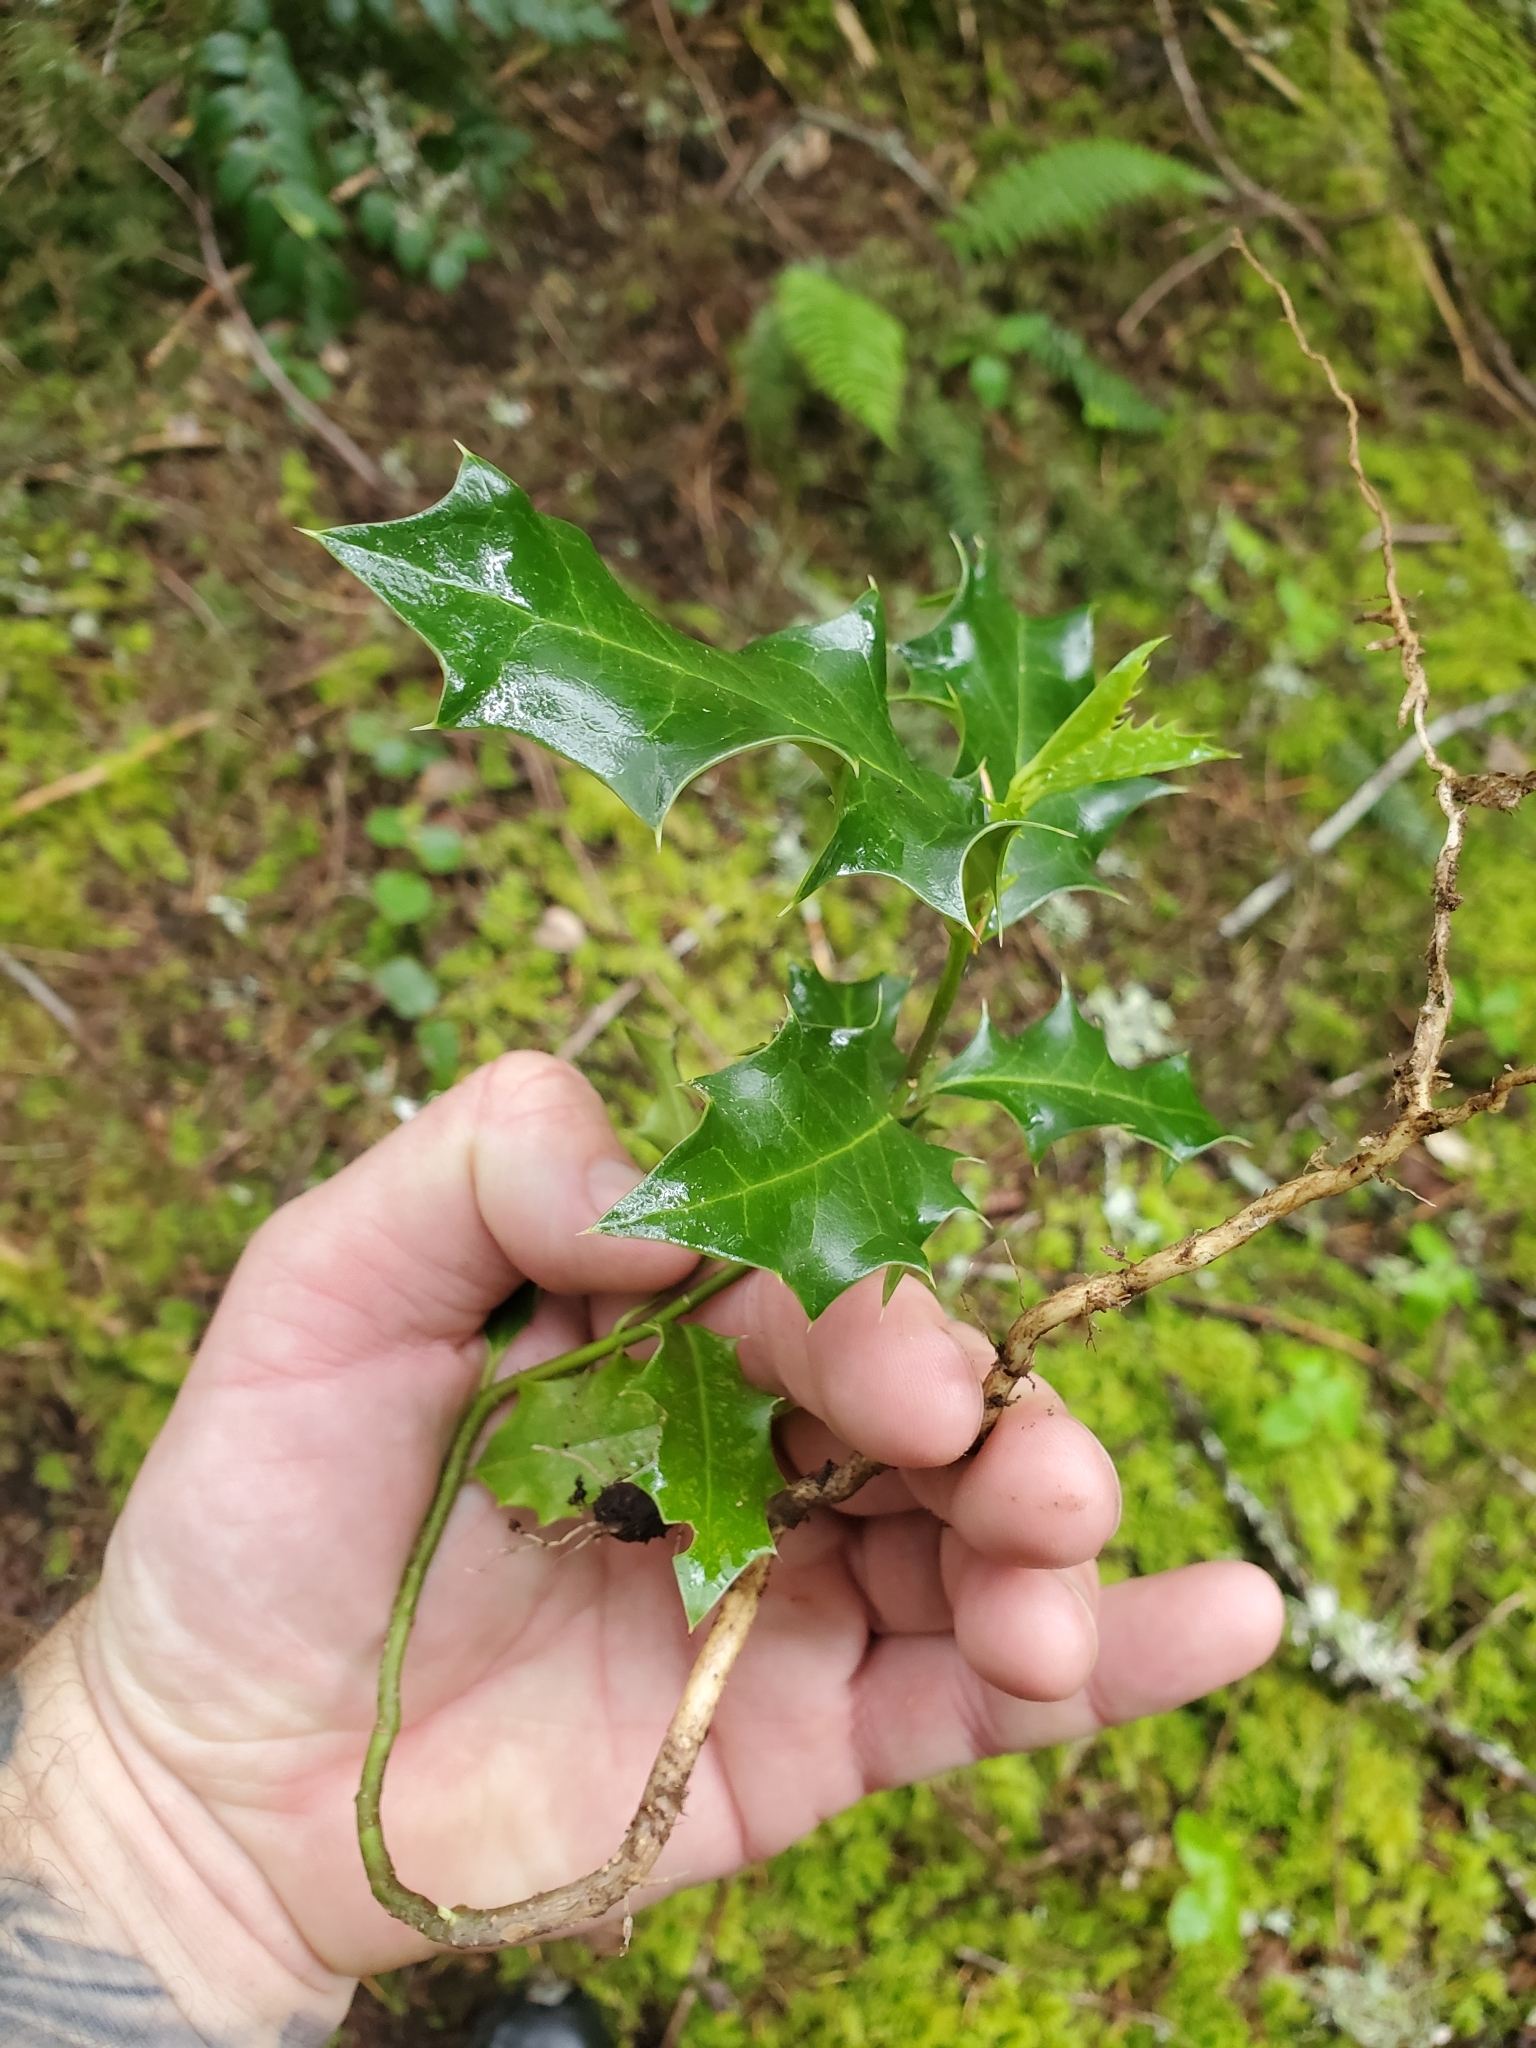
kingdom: Plantae
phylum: Tracheophyta
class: Magnoliopsida
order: Aquifoliales
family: Aquifoliaceae
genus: Ilex
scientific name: Ilex aquifolium
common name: English holly
